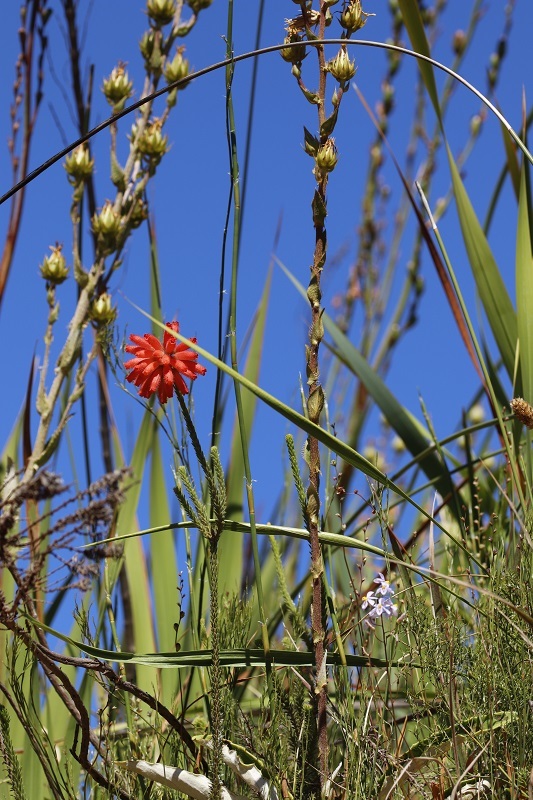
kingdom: Plantae
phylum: Tracheophyta
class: Magnoliopsida
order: Ericales
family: Ericaceae
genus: Erica
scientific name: Erica cerinthoides
